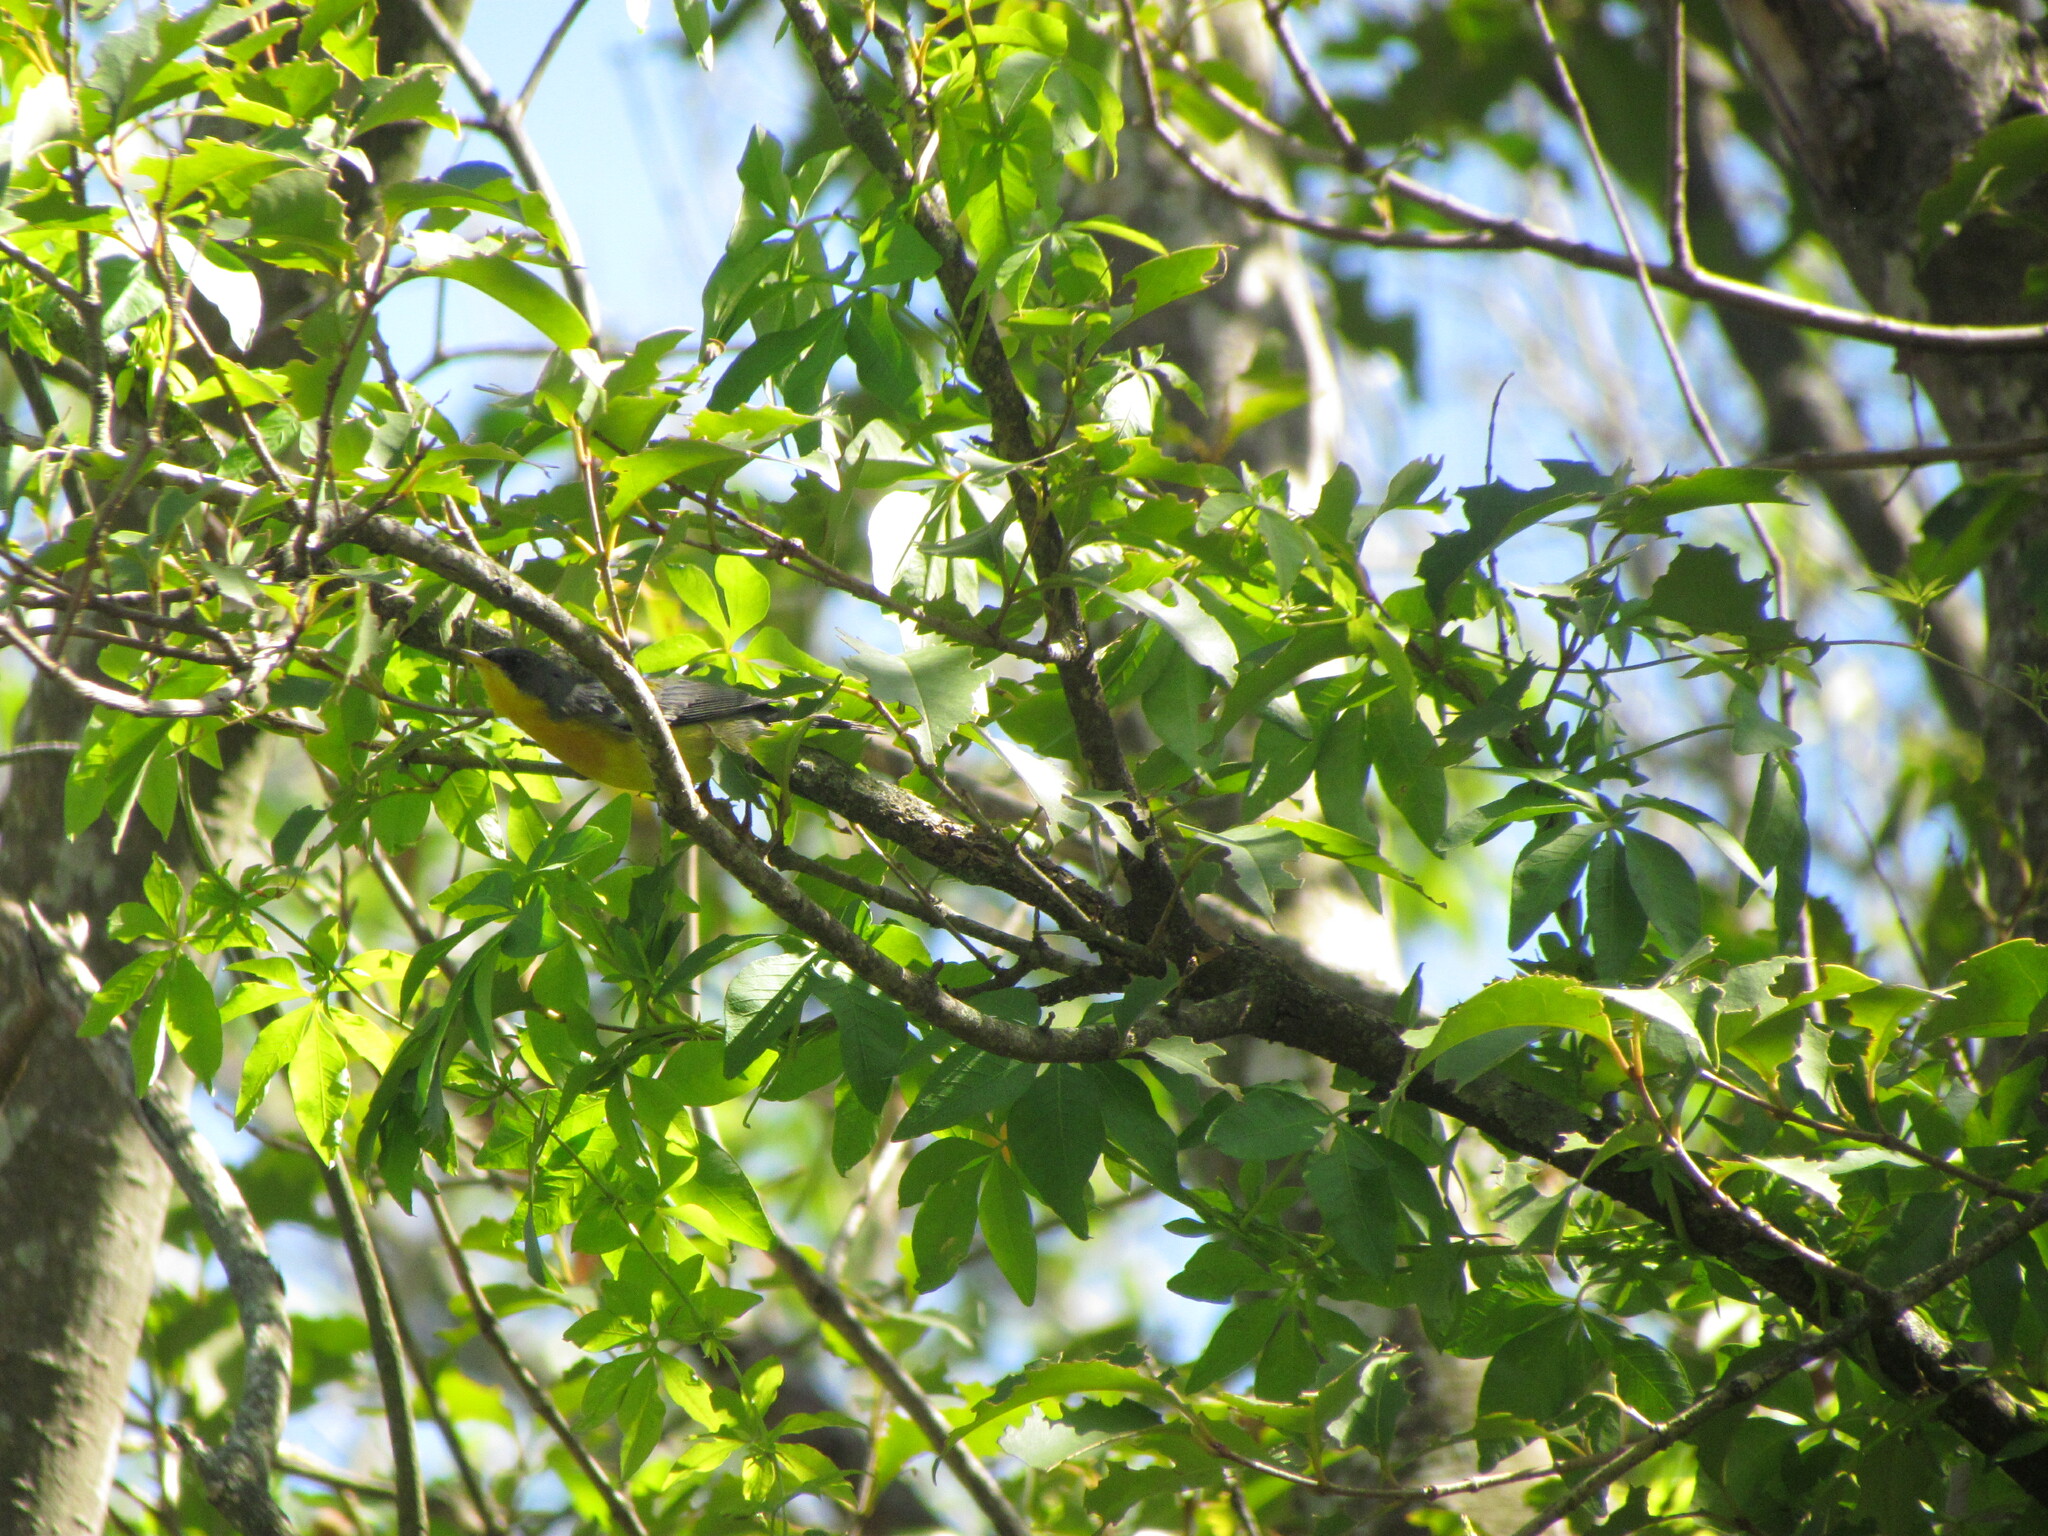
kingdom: Animalia
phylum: Chordata
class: Aves
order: Passeriformes
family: Parulidae
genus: Setophaga
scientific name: Setophaga pitiayumi
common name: Tropical parula
